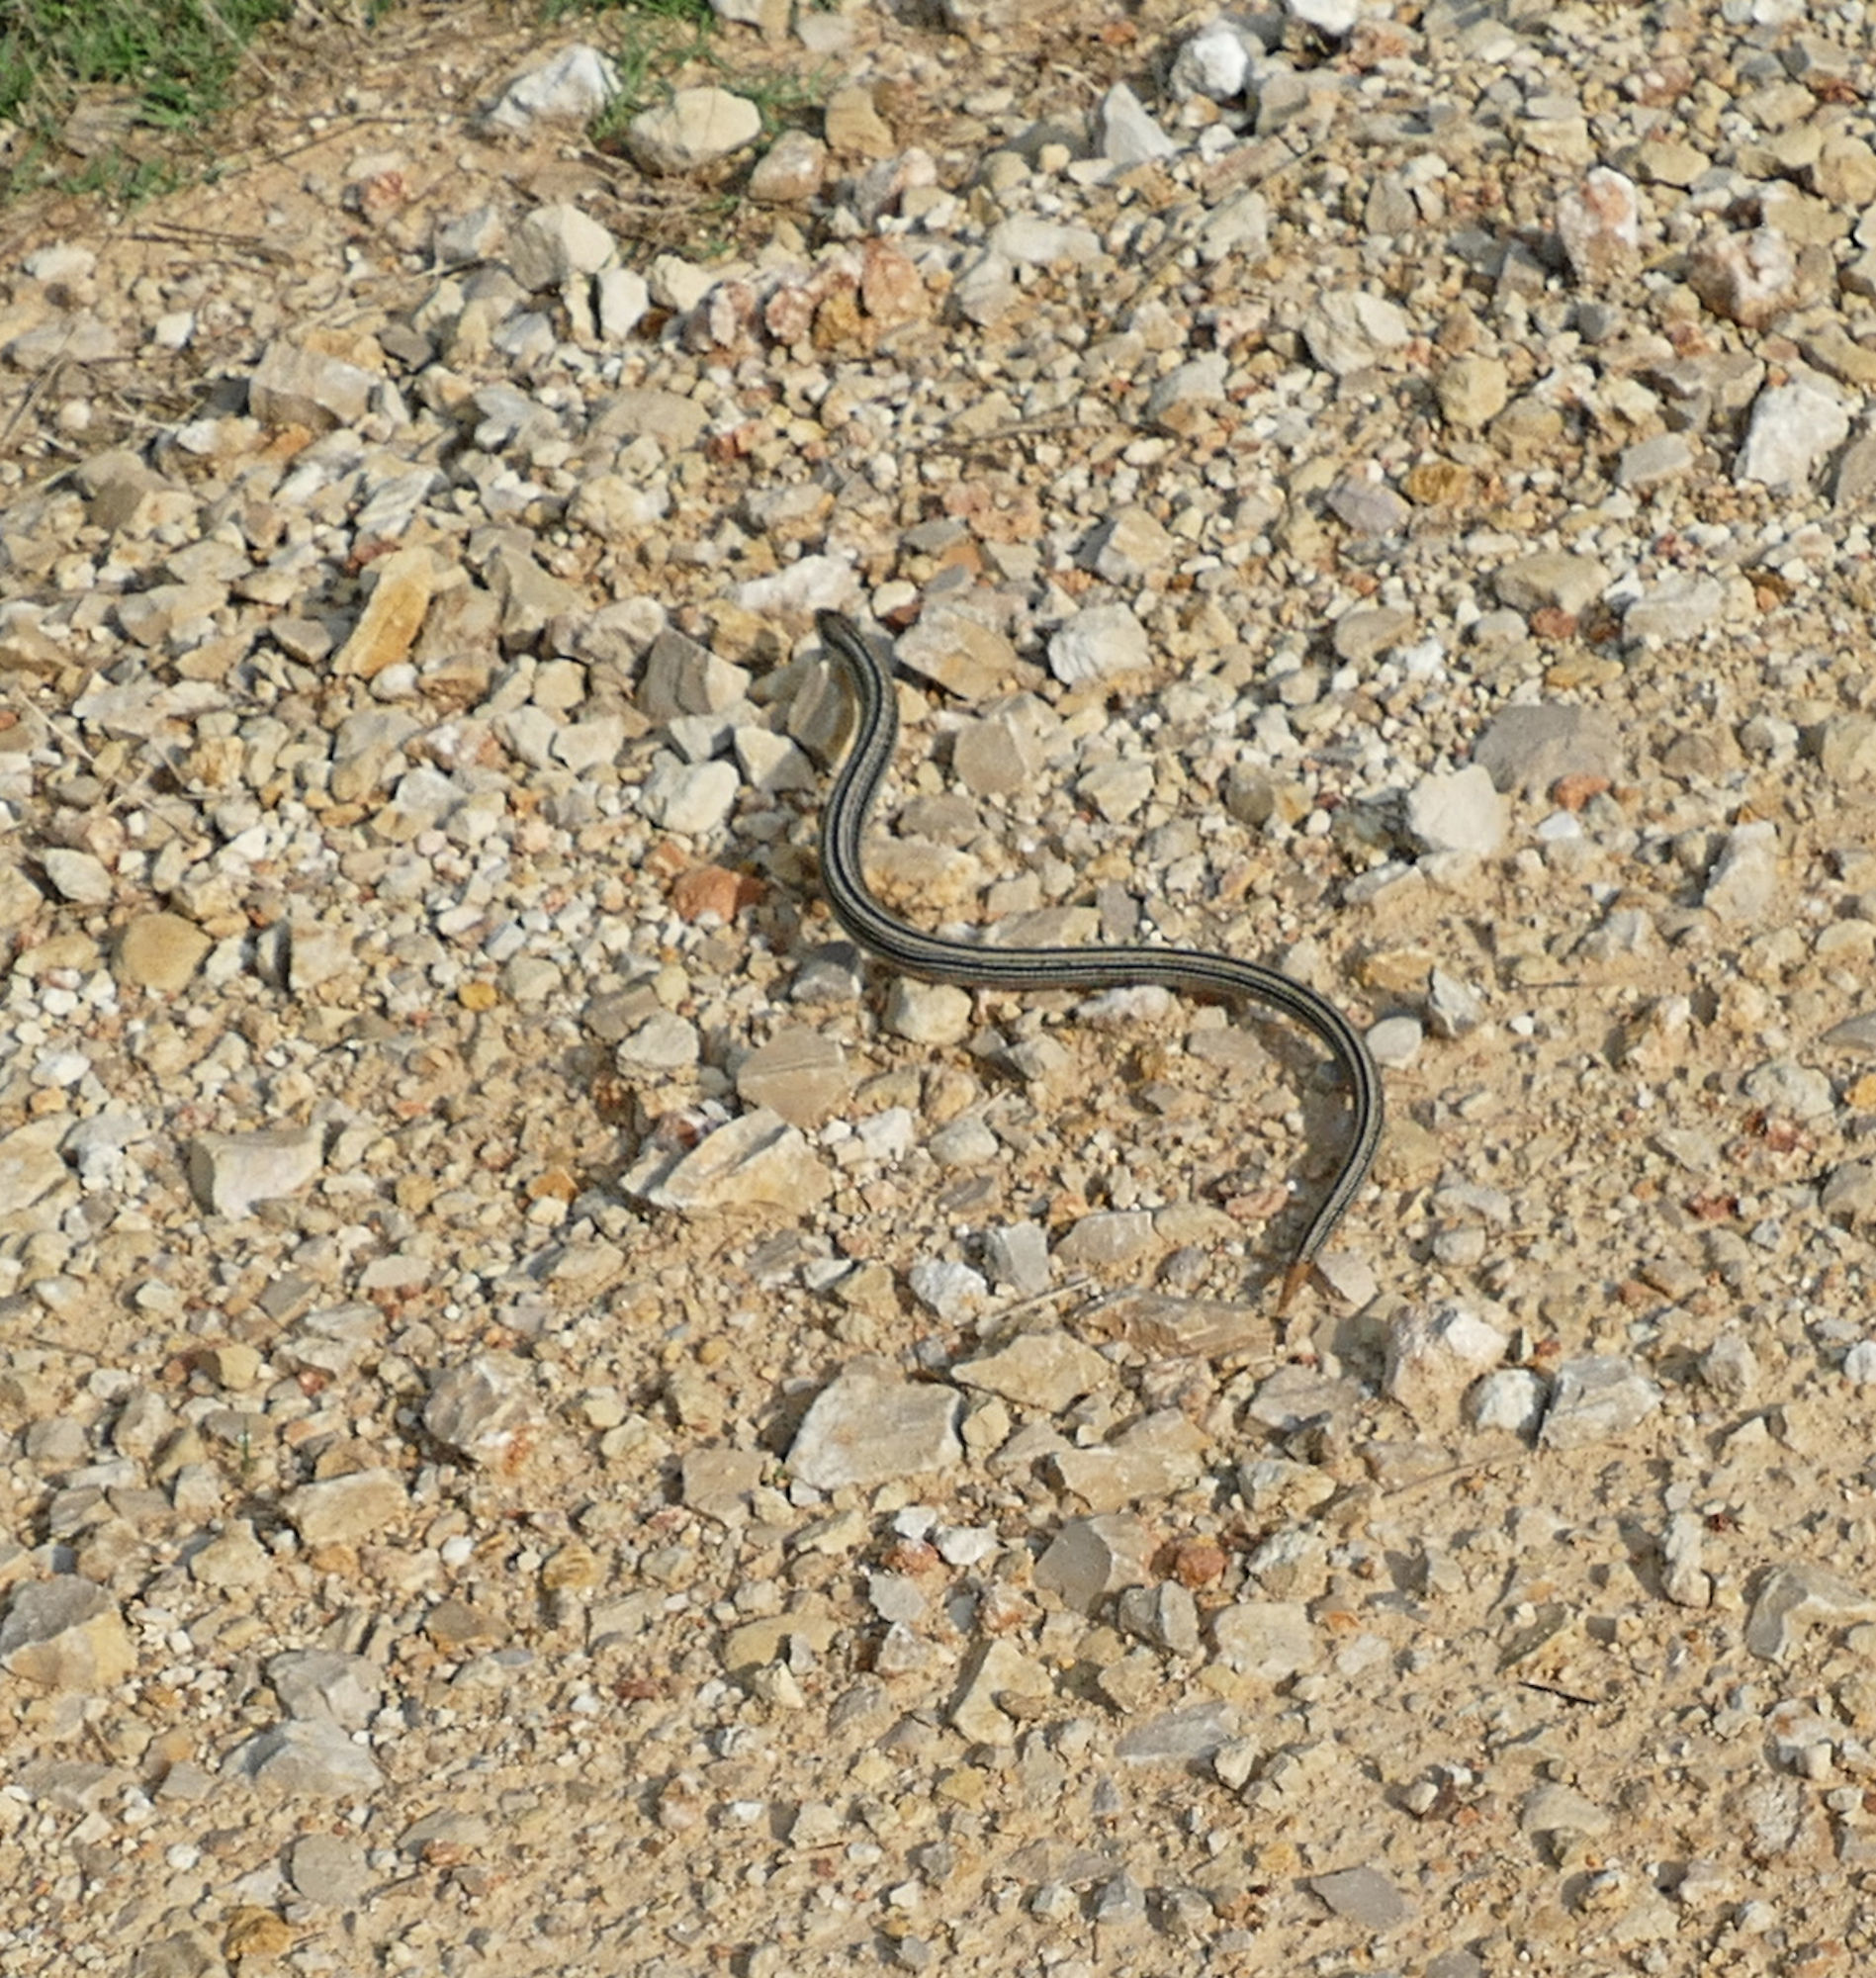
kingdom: Animalia
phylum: Chordata
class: Squamata
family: Anguidae
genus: Ophisaurus
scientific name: Ophisaurus attenuatus
